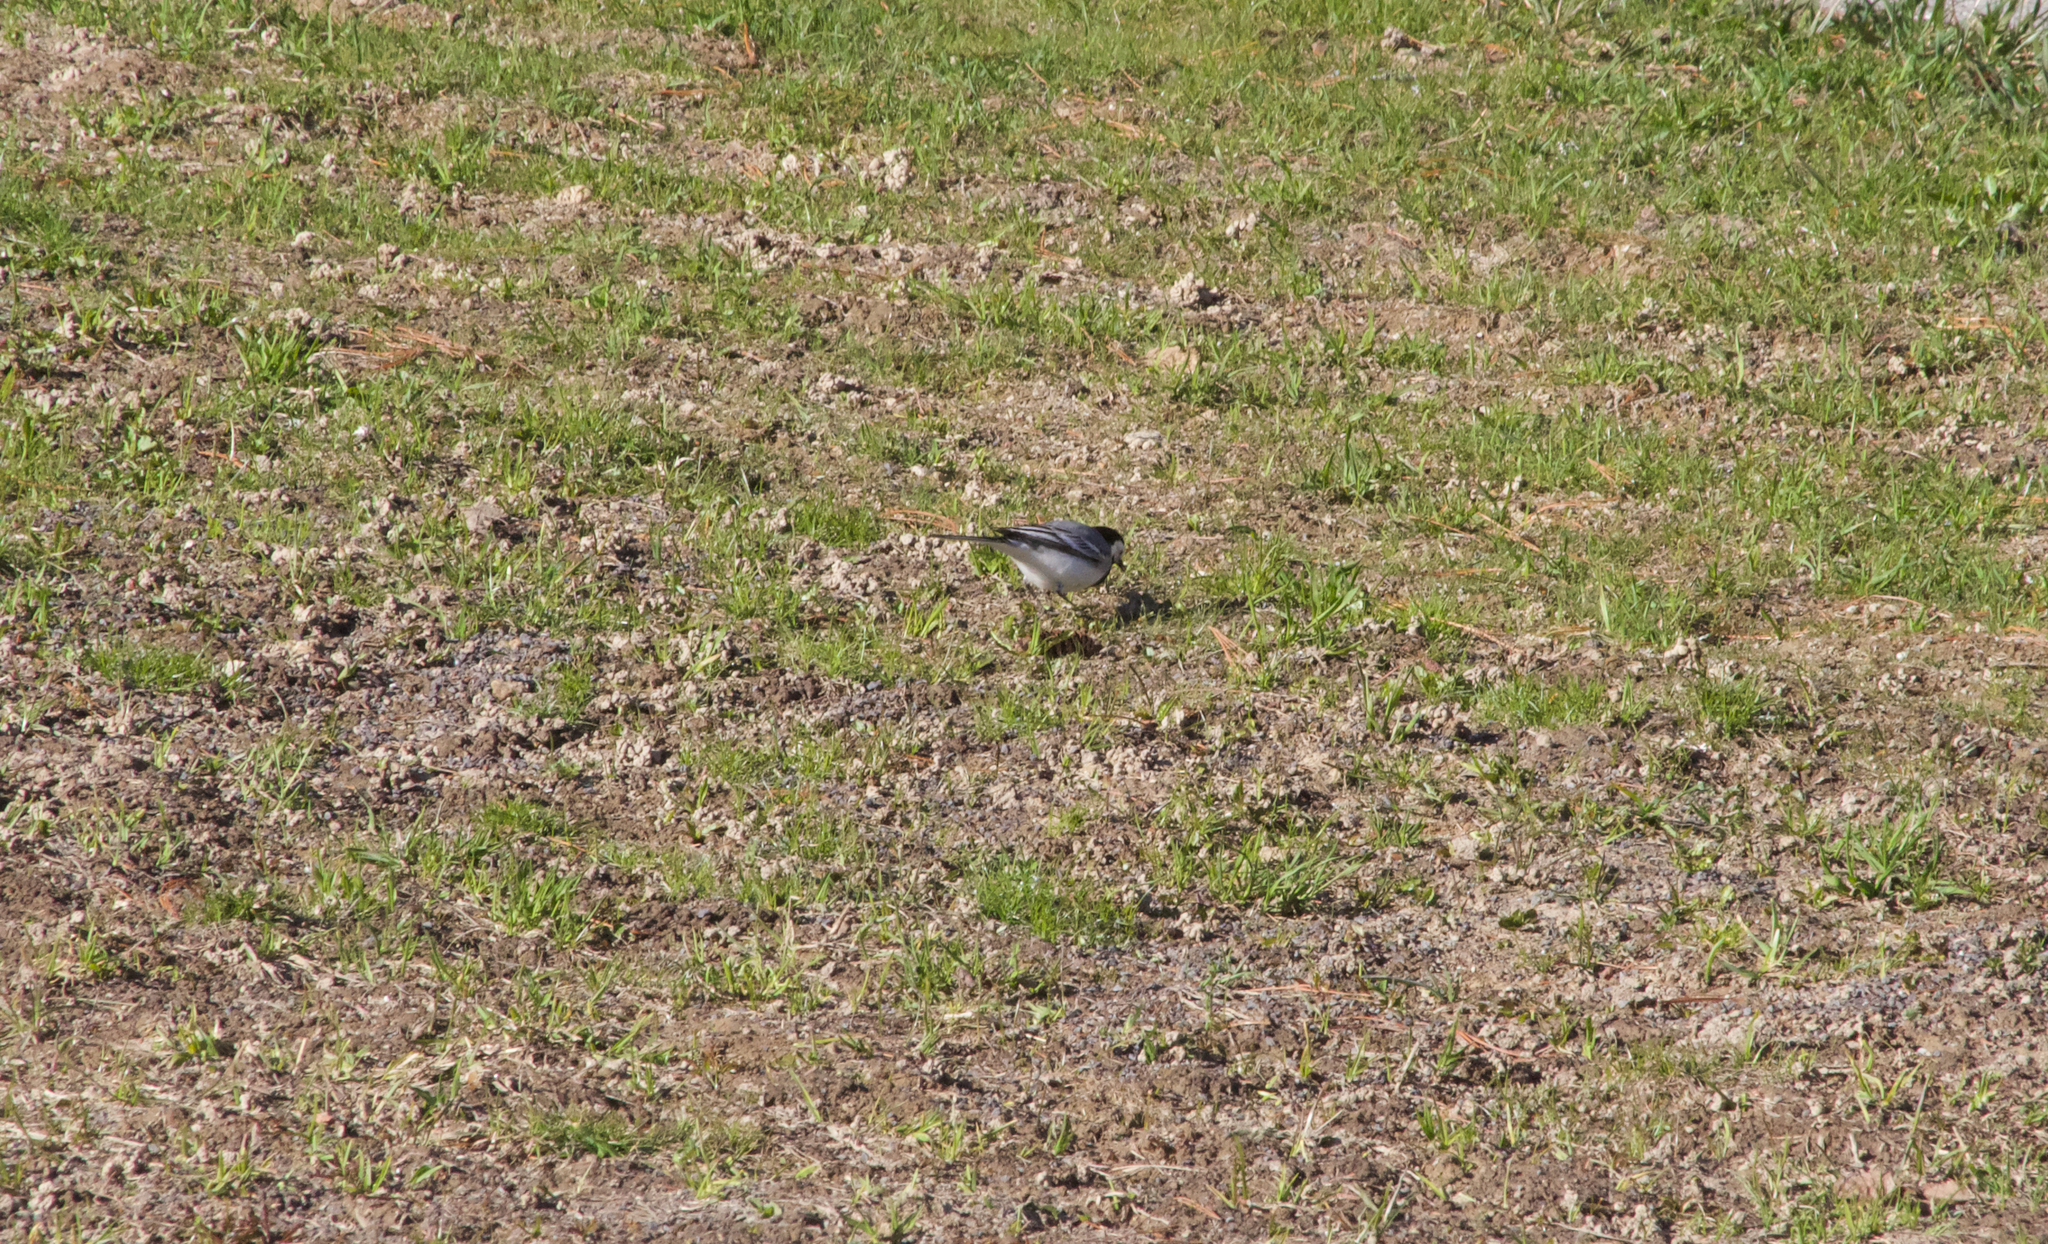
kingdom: Animalia
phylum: Chordata
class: Aves
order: Passeriformes
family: Motacillidae
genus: Motacilla
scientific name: Motacilla alba
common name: White wagtail
